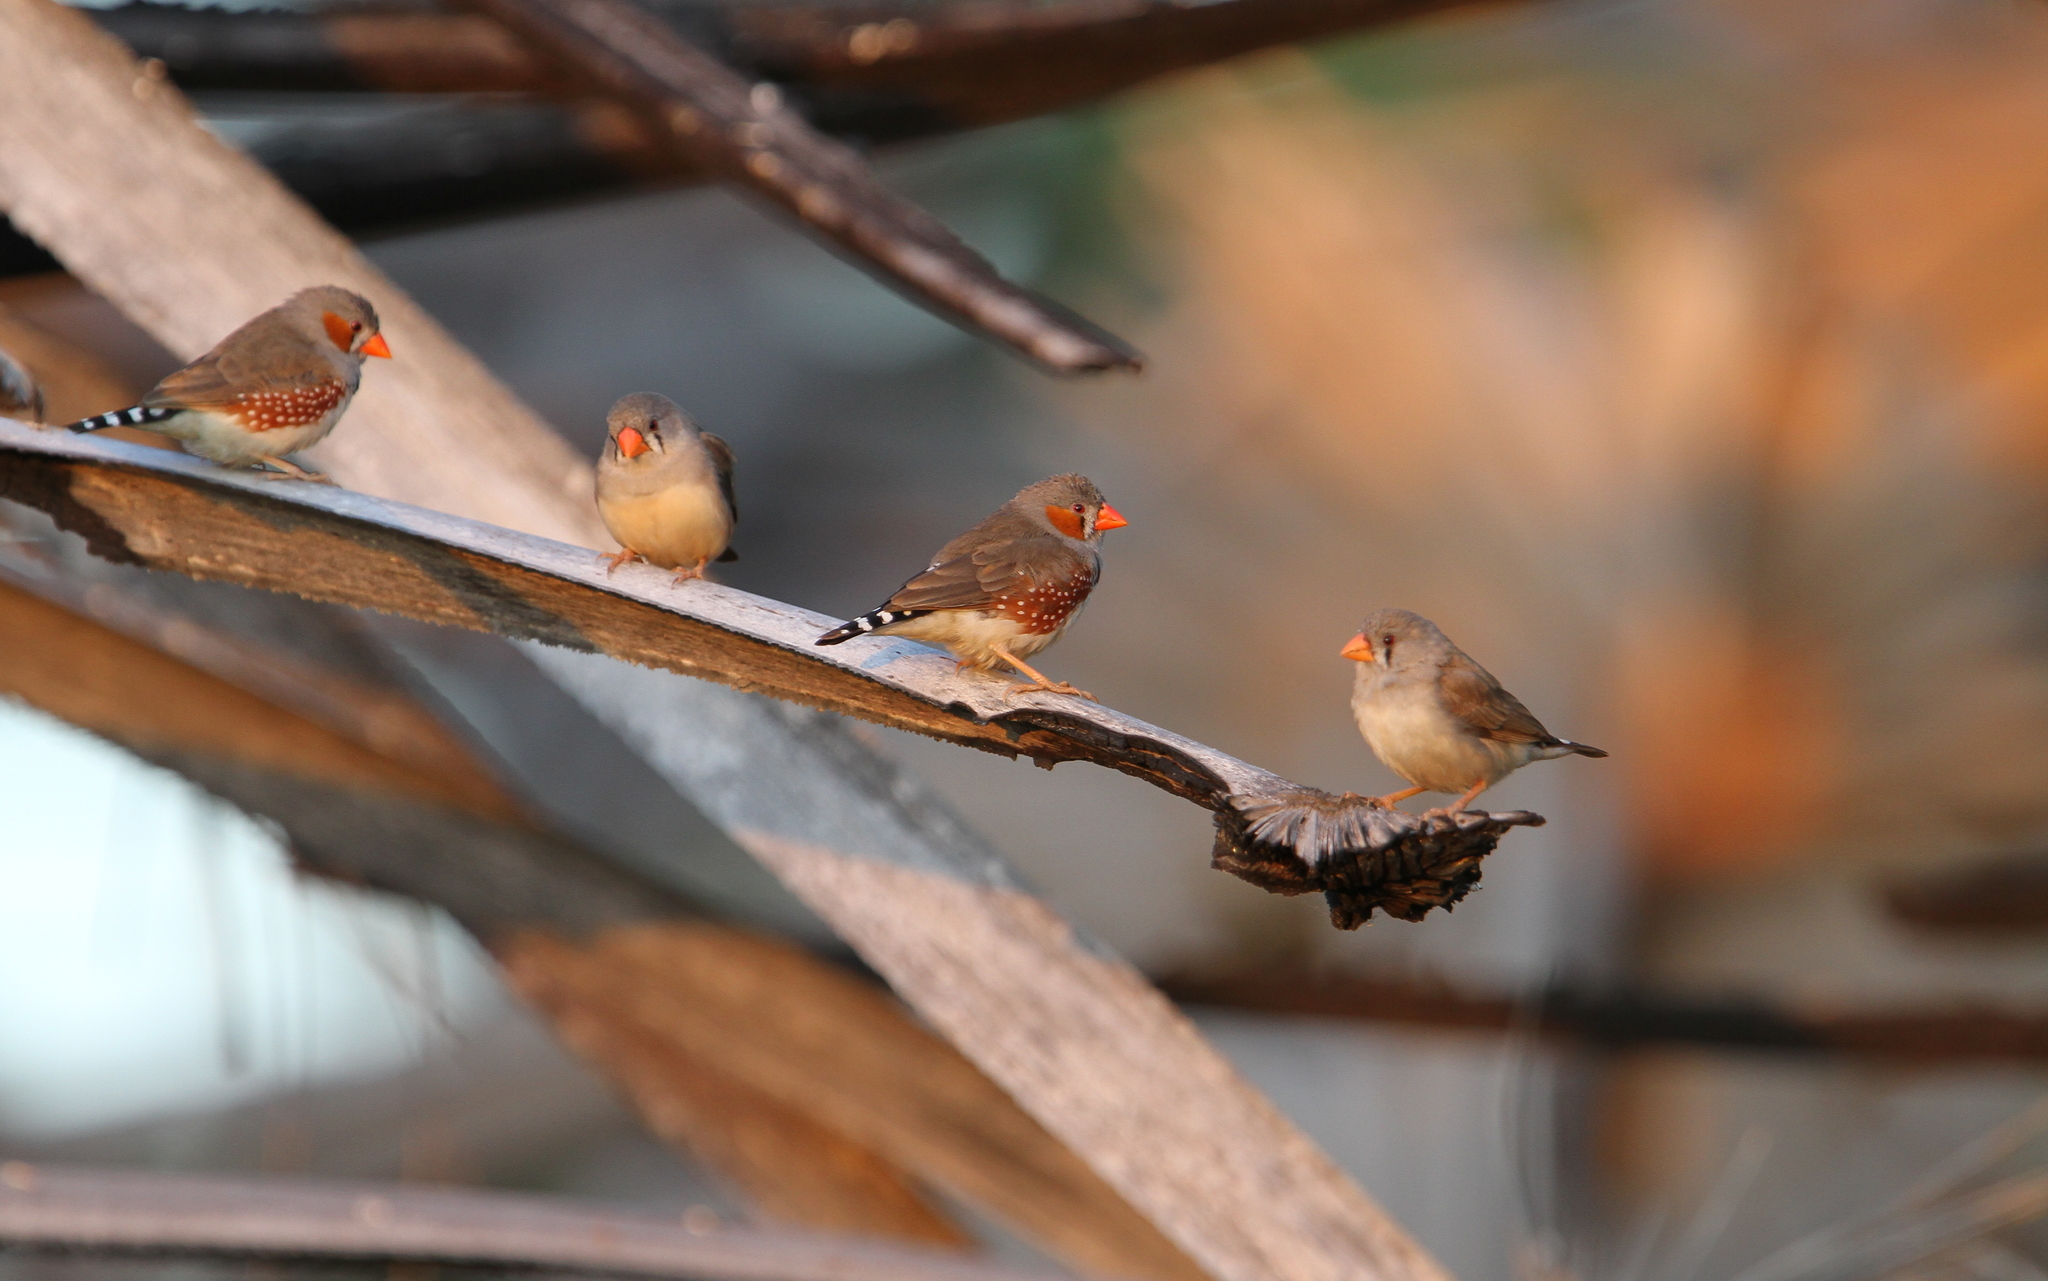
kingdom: Animalia
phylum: Chordata
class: Aves
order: Passeriformes
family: Estrildidae
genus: Taeniopygia
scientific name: Taeniopygia guttata
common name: Zebra finch
